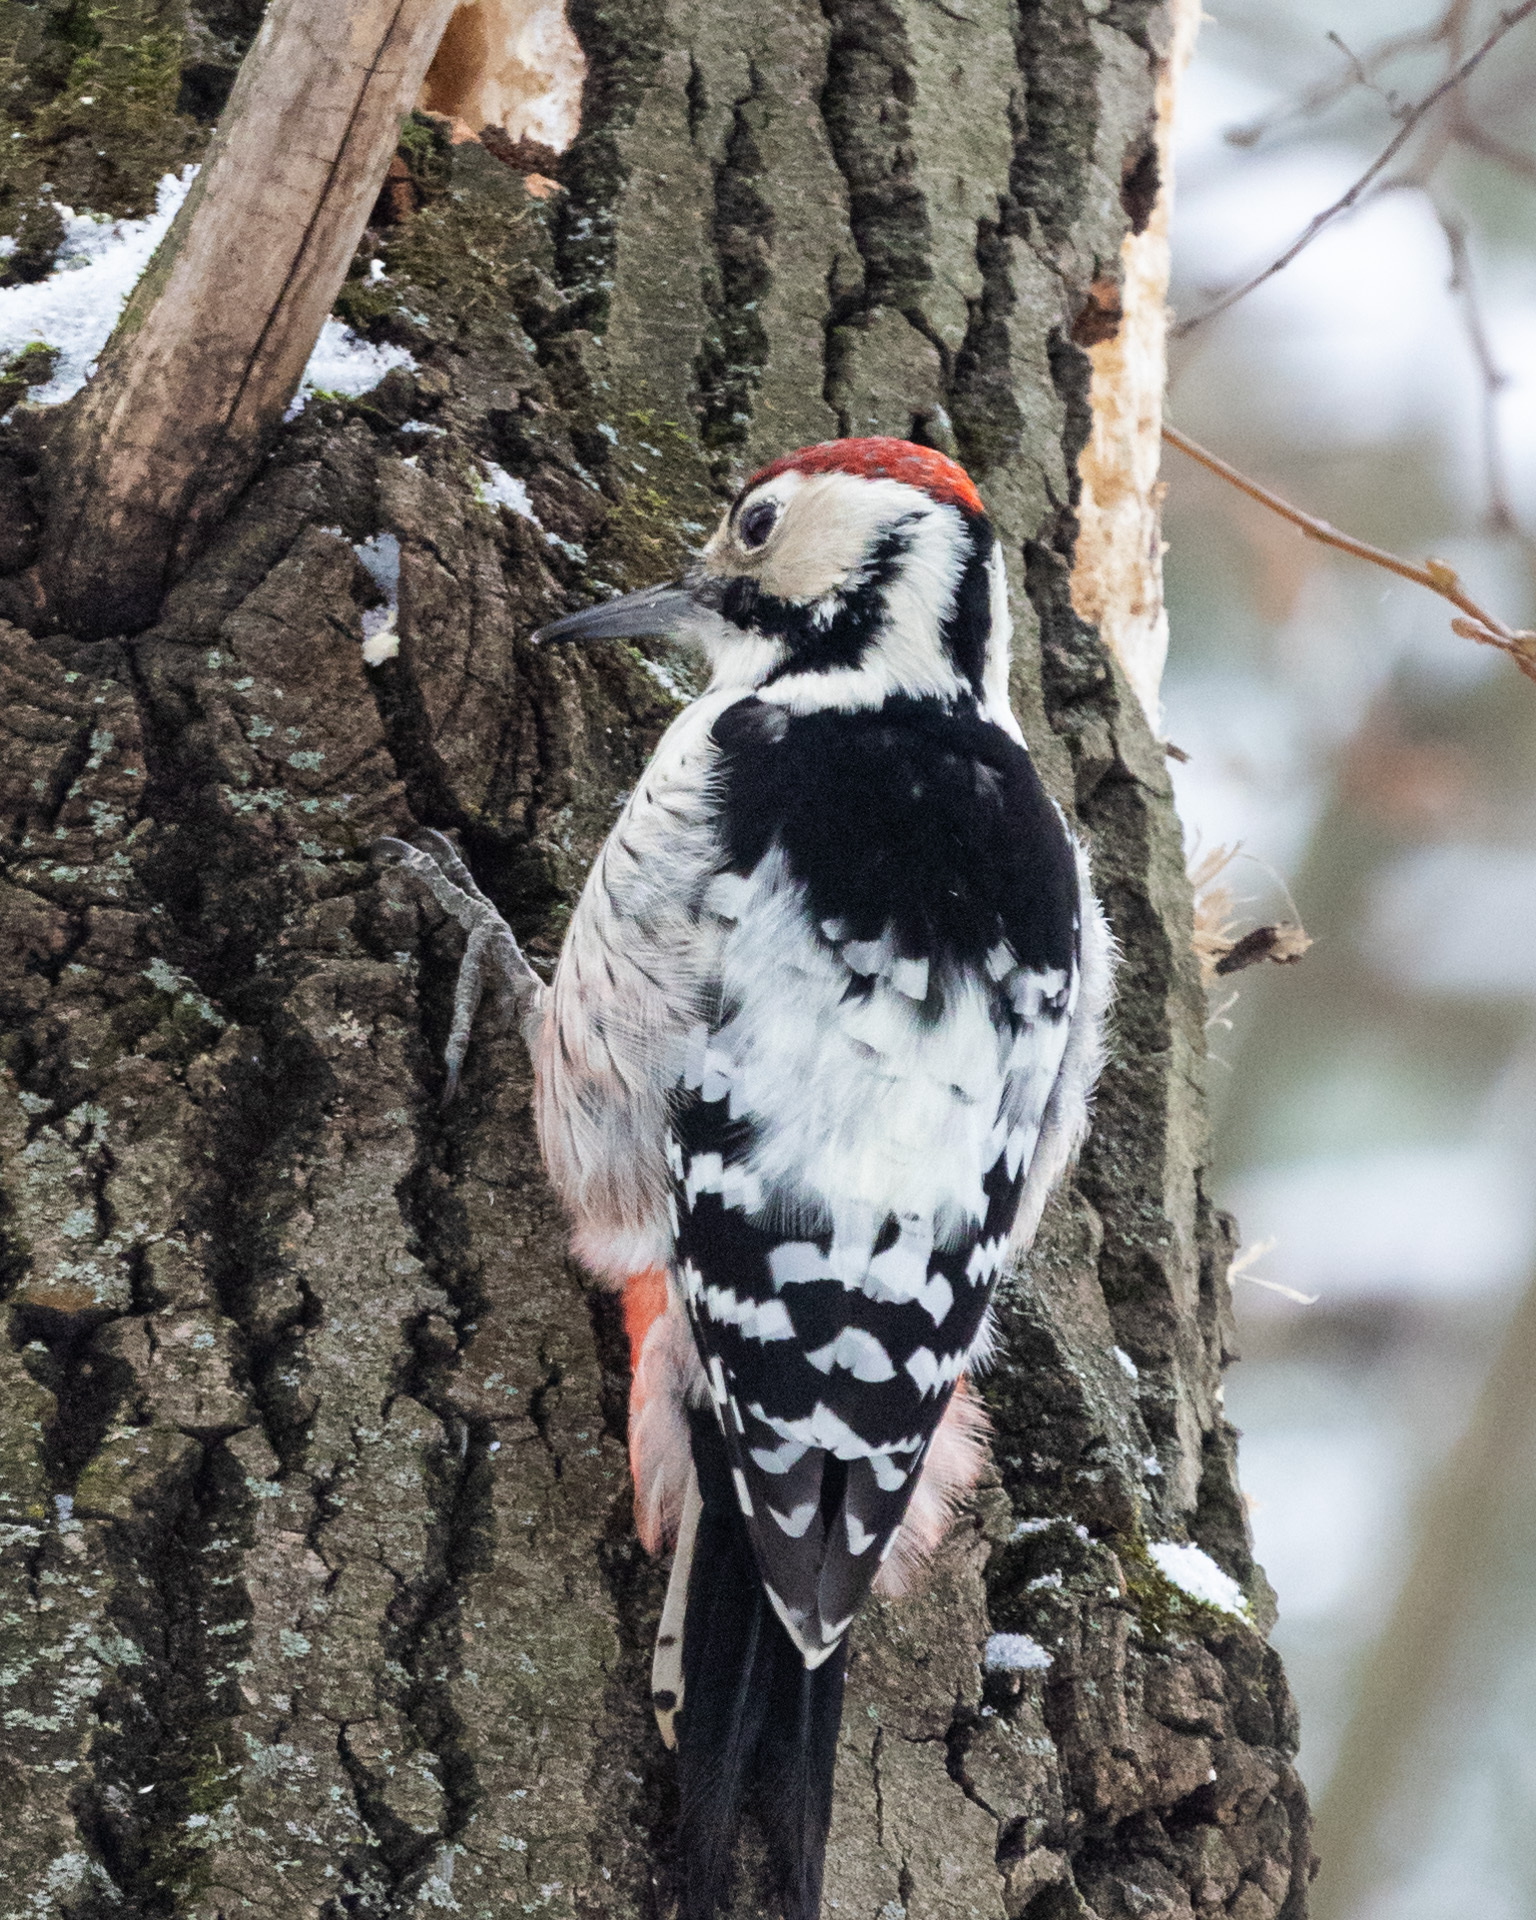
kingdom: Animalia
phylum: Chordata
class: Aves
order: Piciformes
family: Picidae
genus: Dendrocopos
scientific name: Dendrocopos leucotos
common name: White-backed woodpecker
